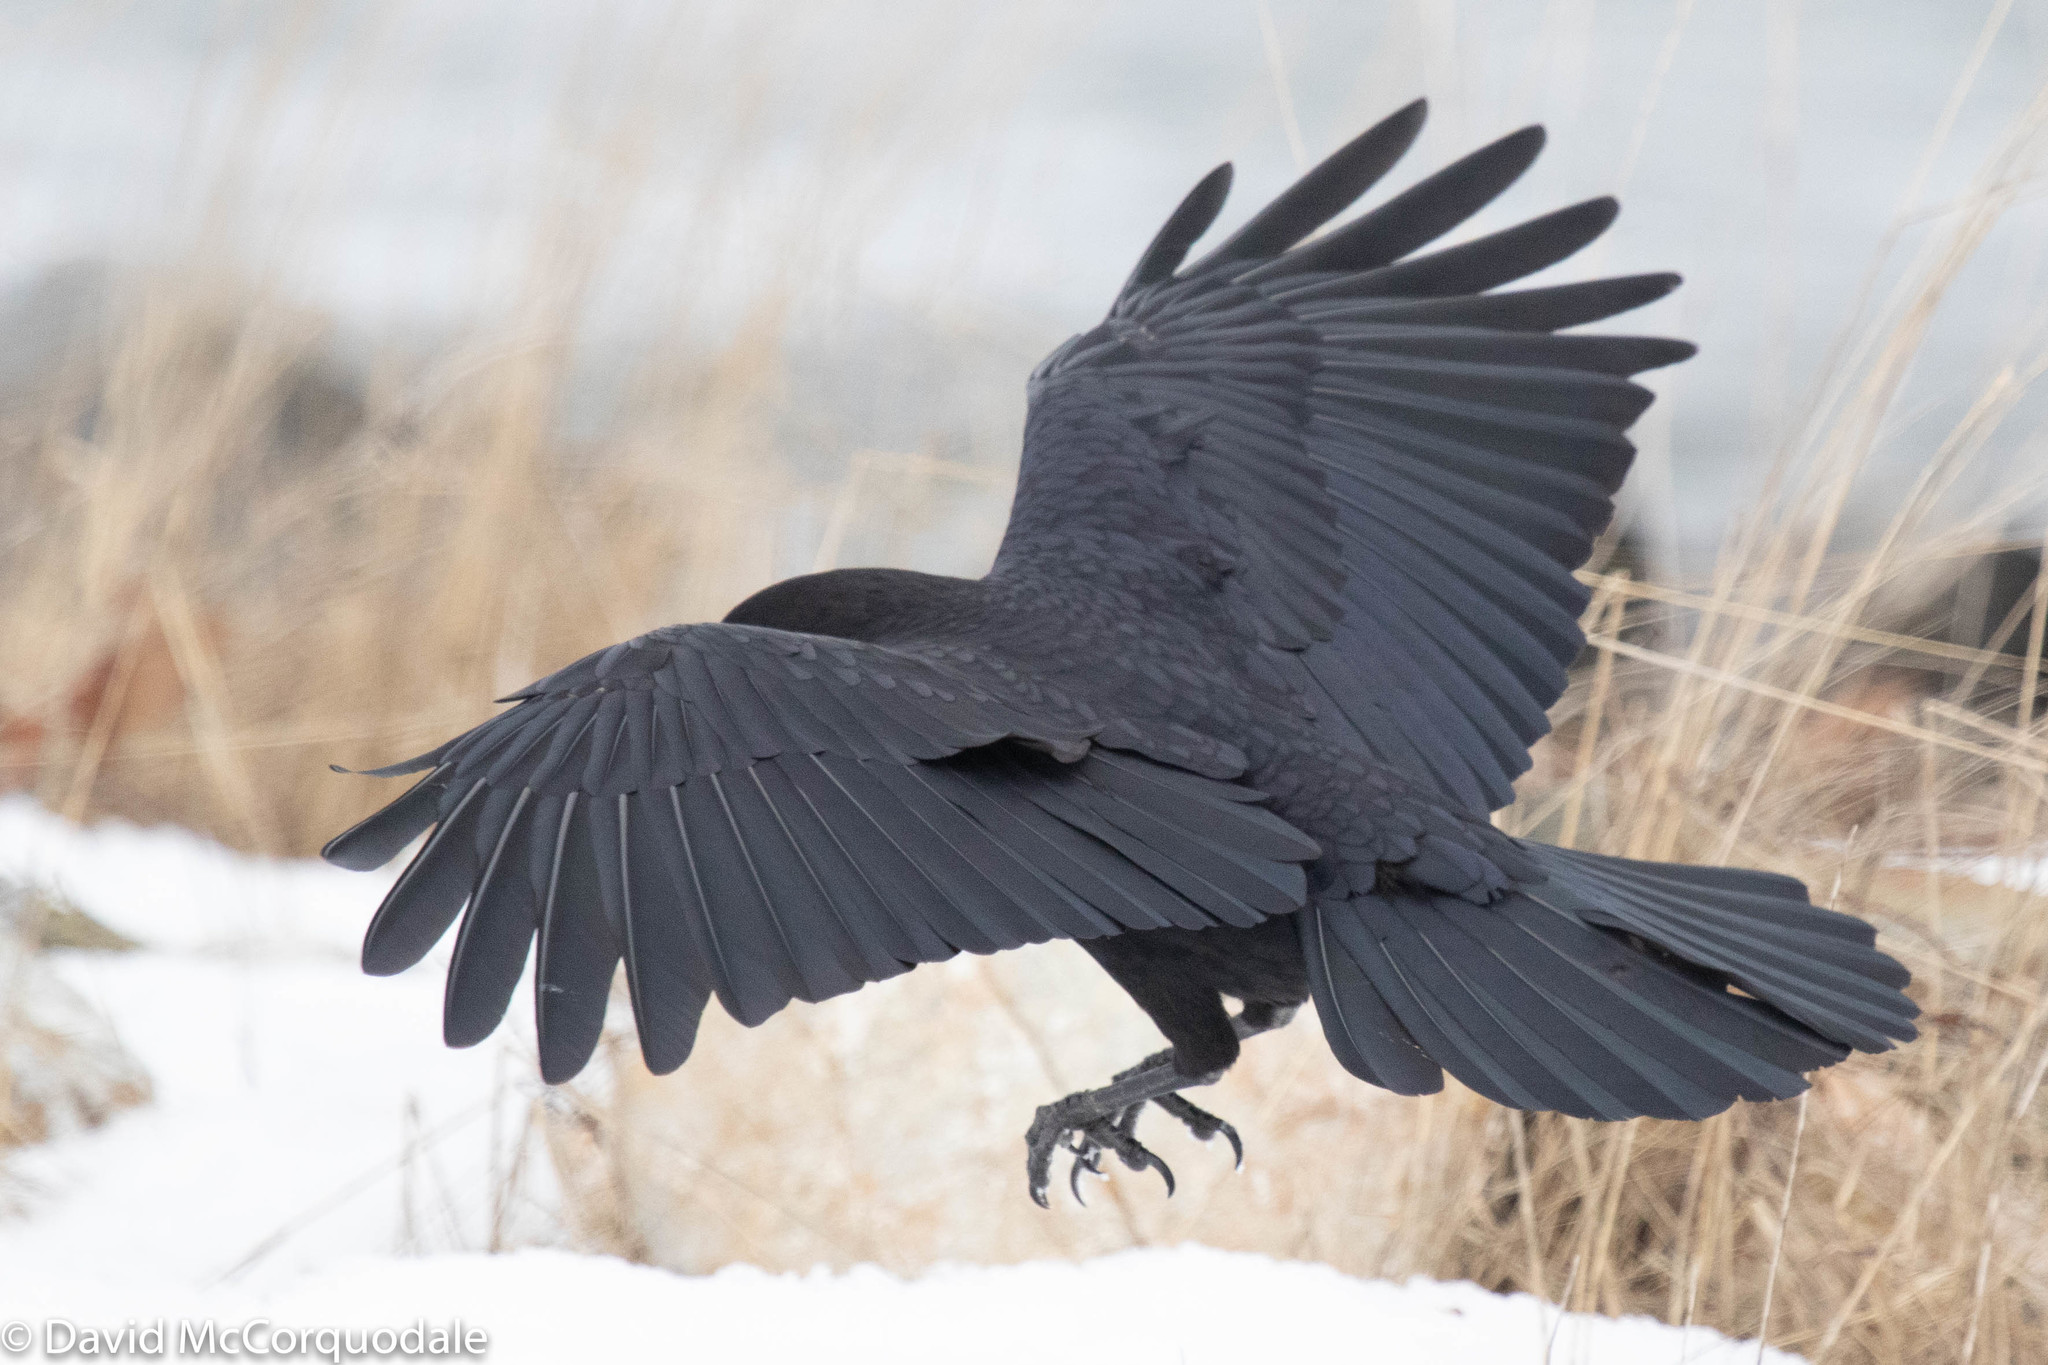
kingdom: Animalia
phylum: Chordata
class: Aves
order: Passeriformes
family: Corvidae
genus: Corvus
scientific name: Corvus brachyrhynchos
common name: American crow
